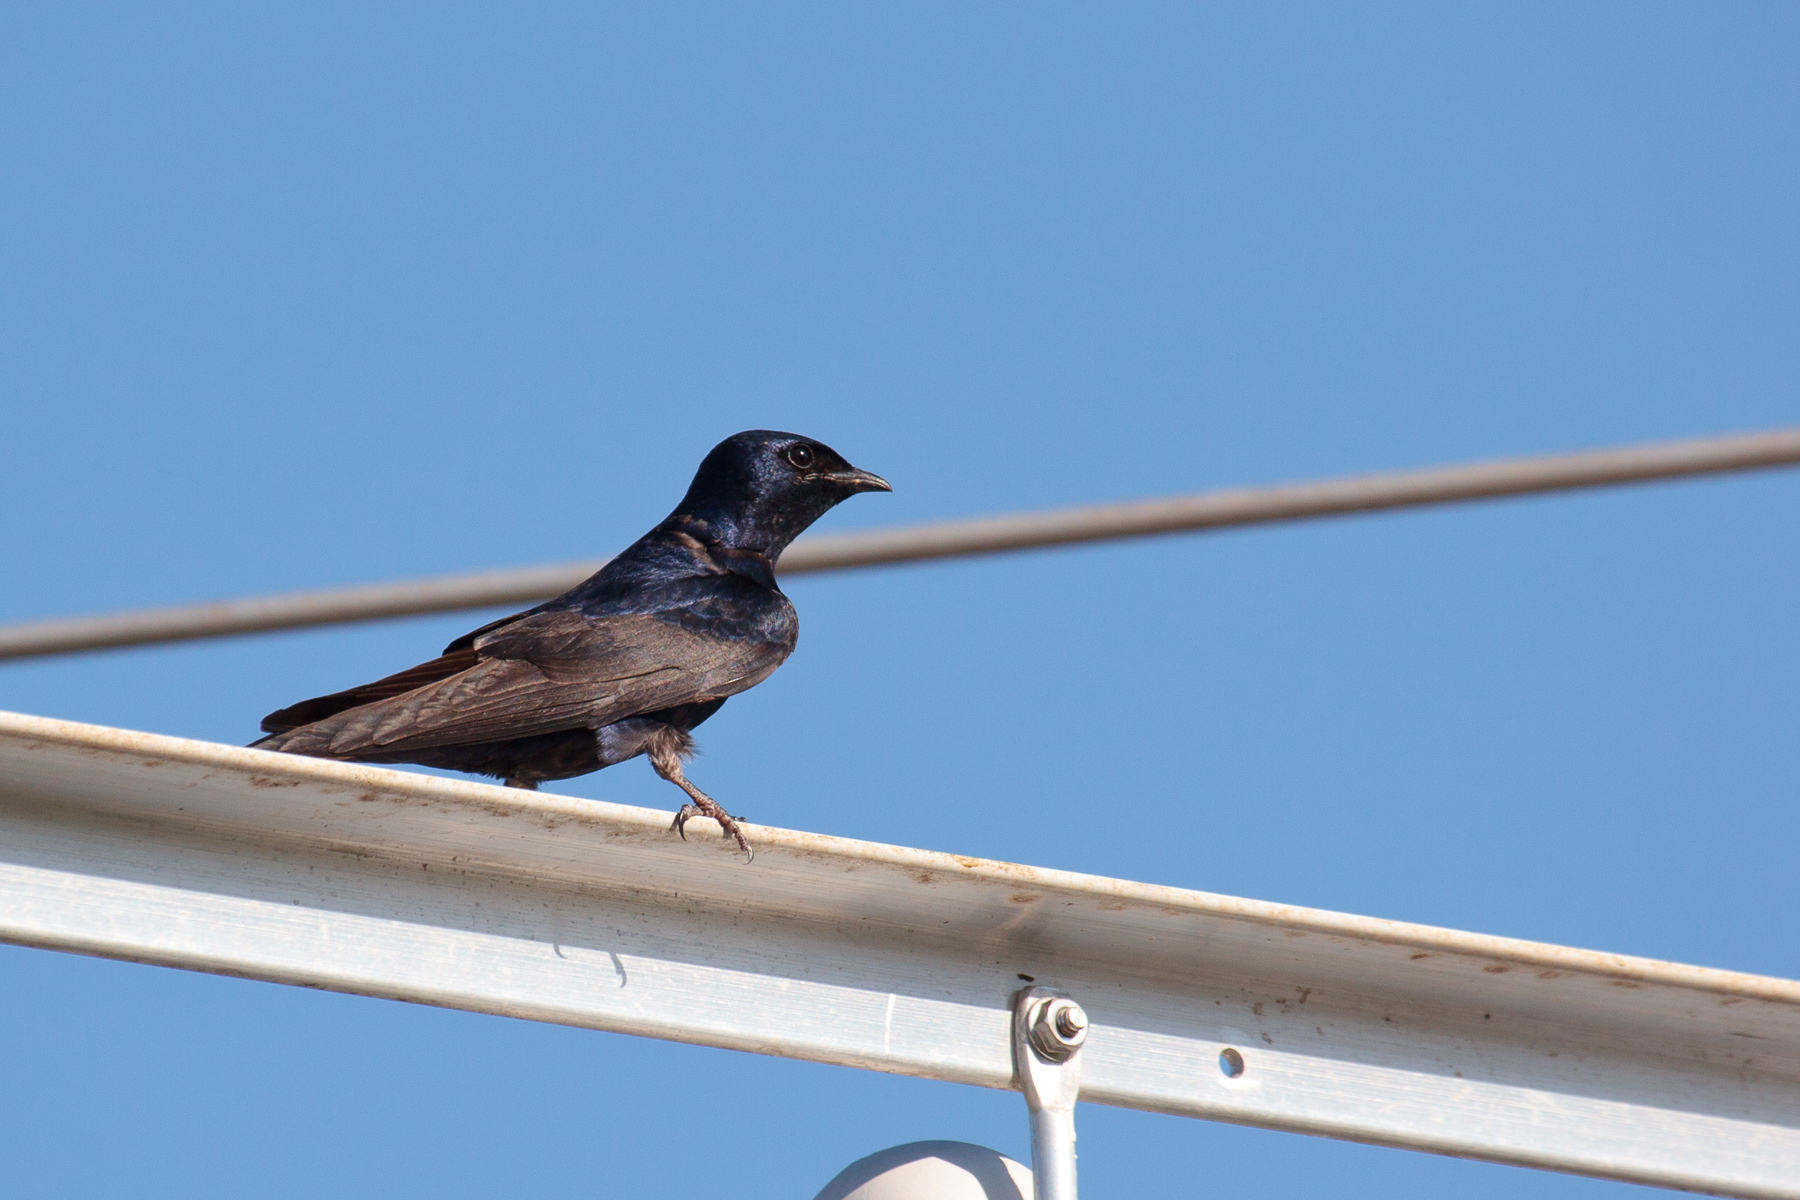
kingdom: Animalia
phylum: Chordata
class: Aves
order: Passeriformes
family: Hirundinidae
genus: Progne
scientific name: Progne subis
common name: Purple martin
